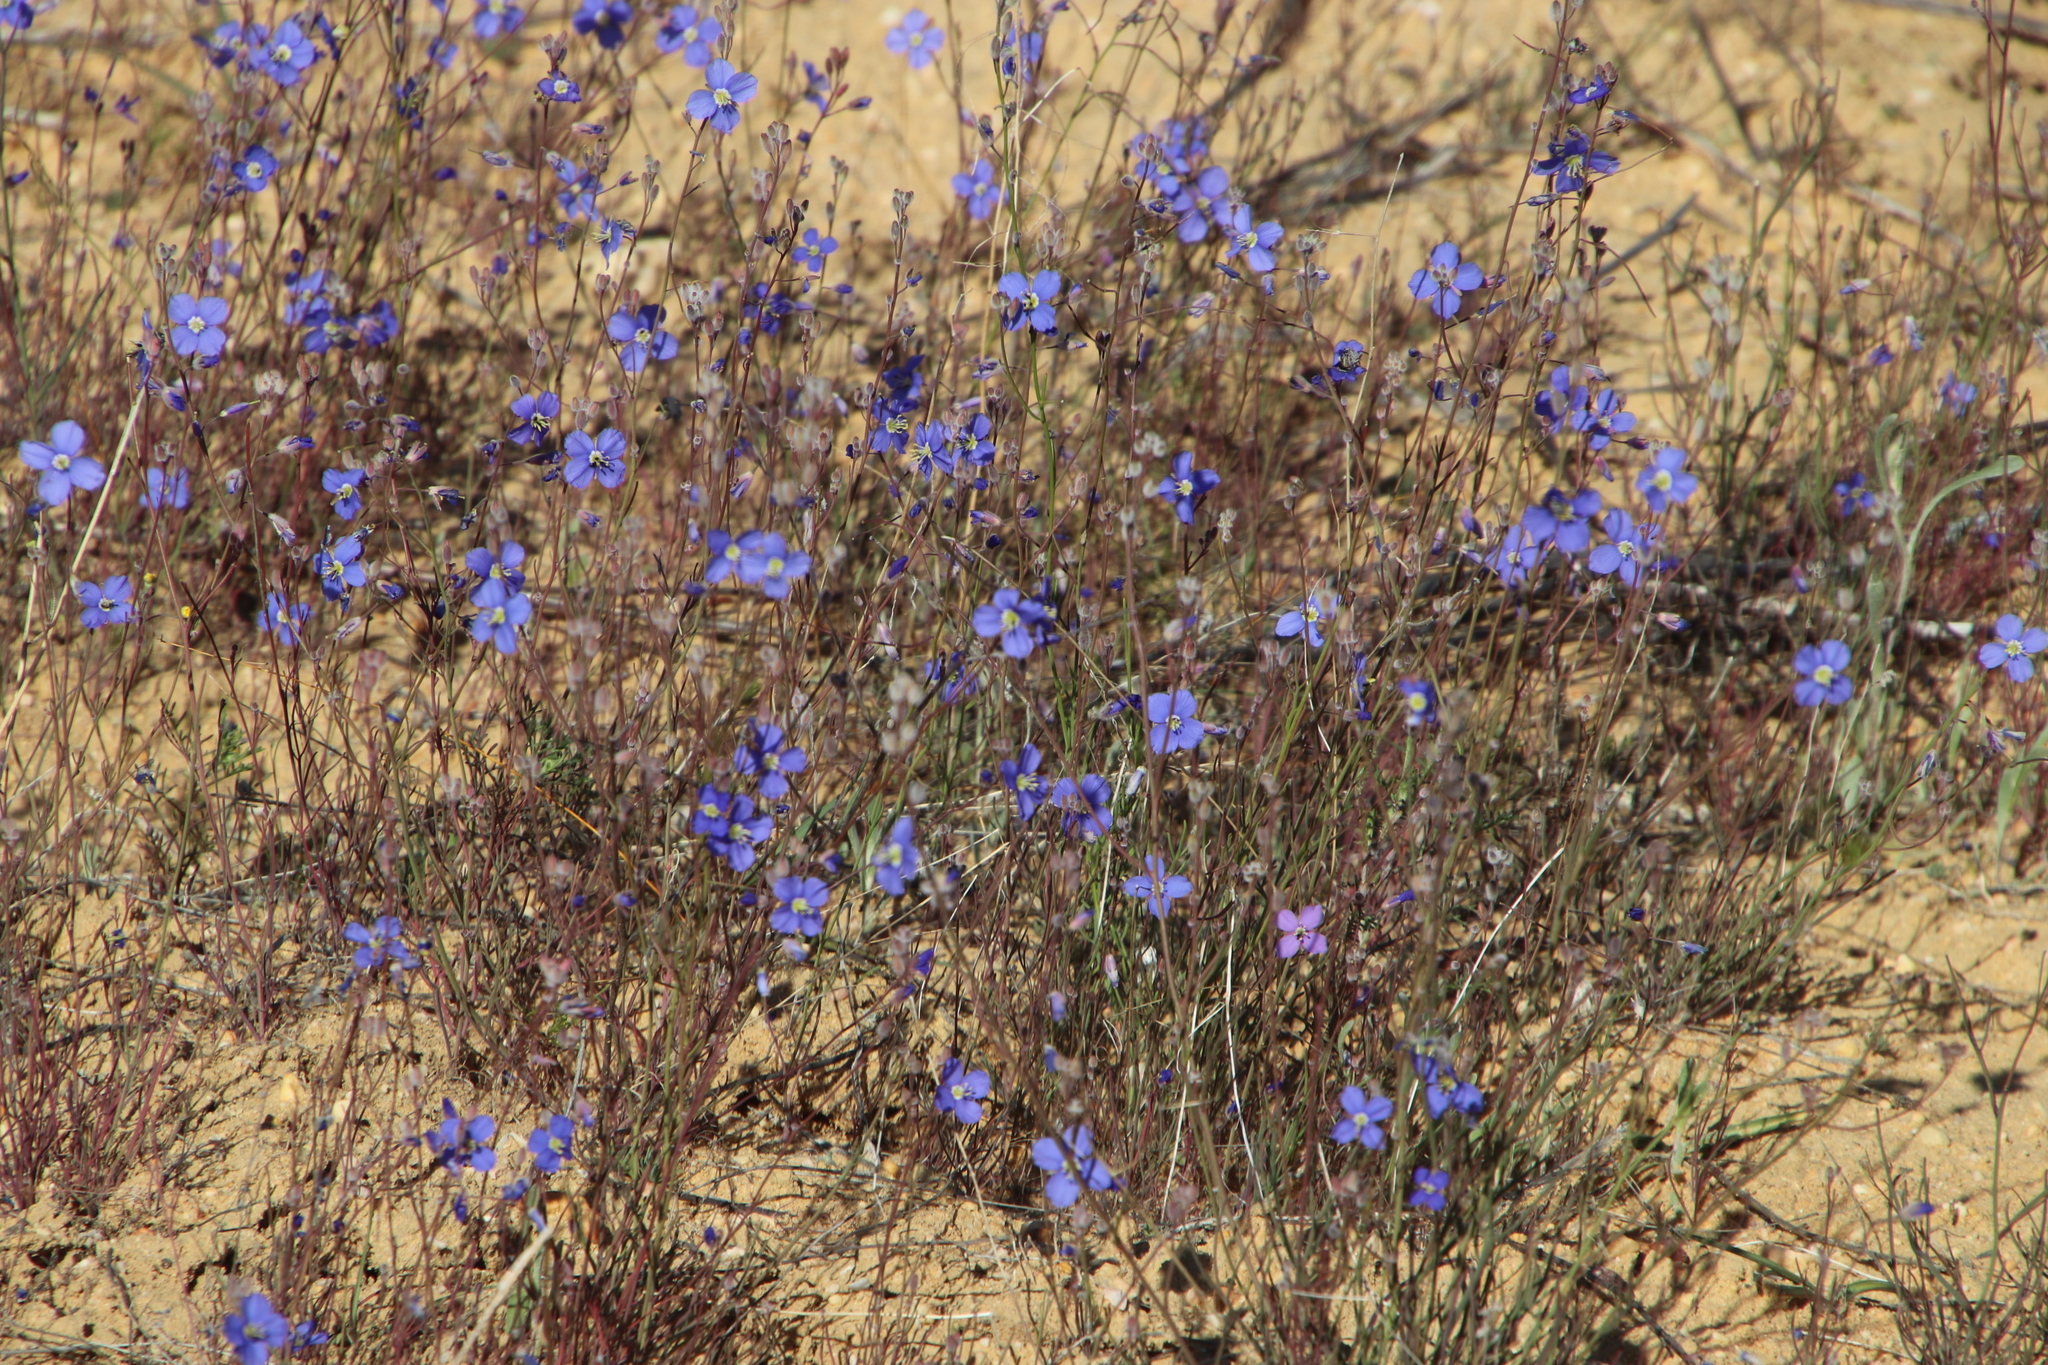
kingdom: Plantae
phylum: Tracheophyta
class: Magnoliopsida
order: Brassicales
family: Brassicaceae
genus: Heliophila
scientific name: Heliophila arenaria
